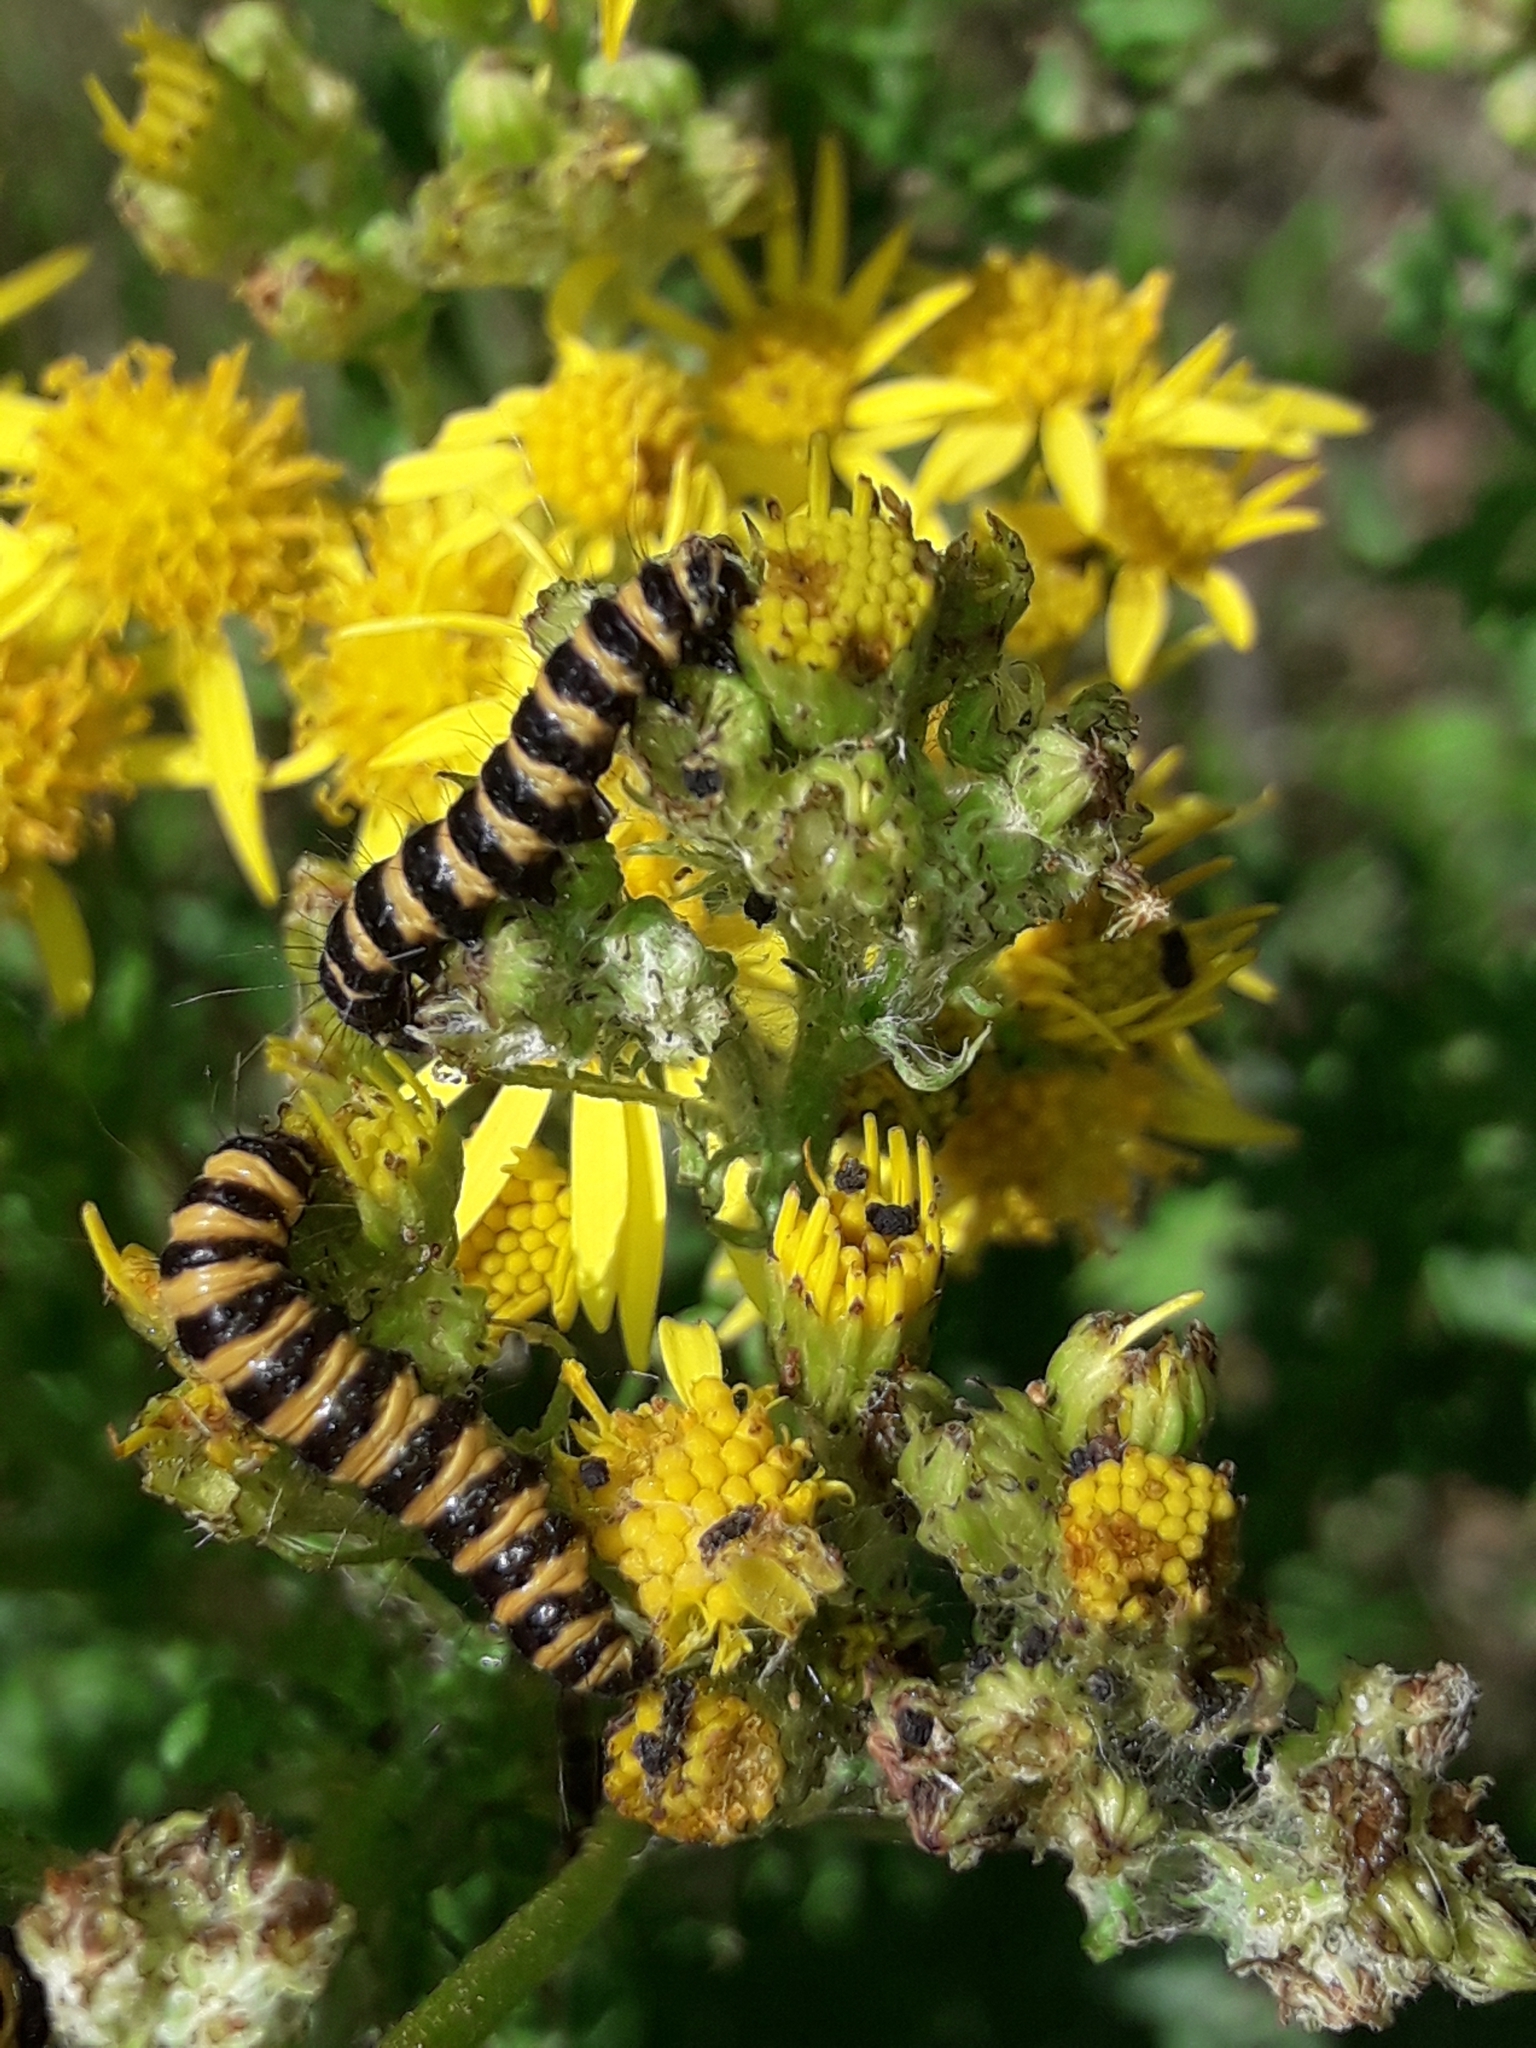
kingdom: Animalia
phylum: Arthropoda
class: Insecta
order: Lepidoptera
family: Erebidae
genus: Tyria
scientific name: Tyria jacobaeae
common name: Cinnabar
